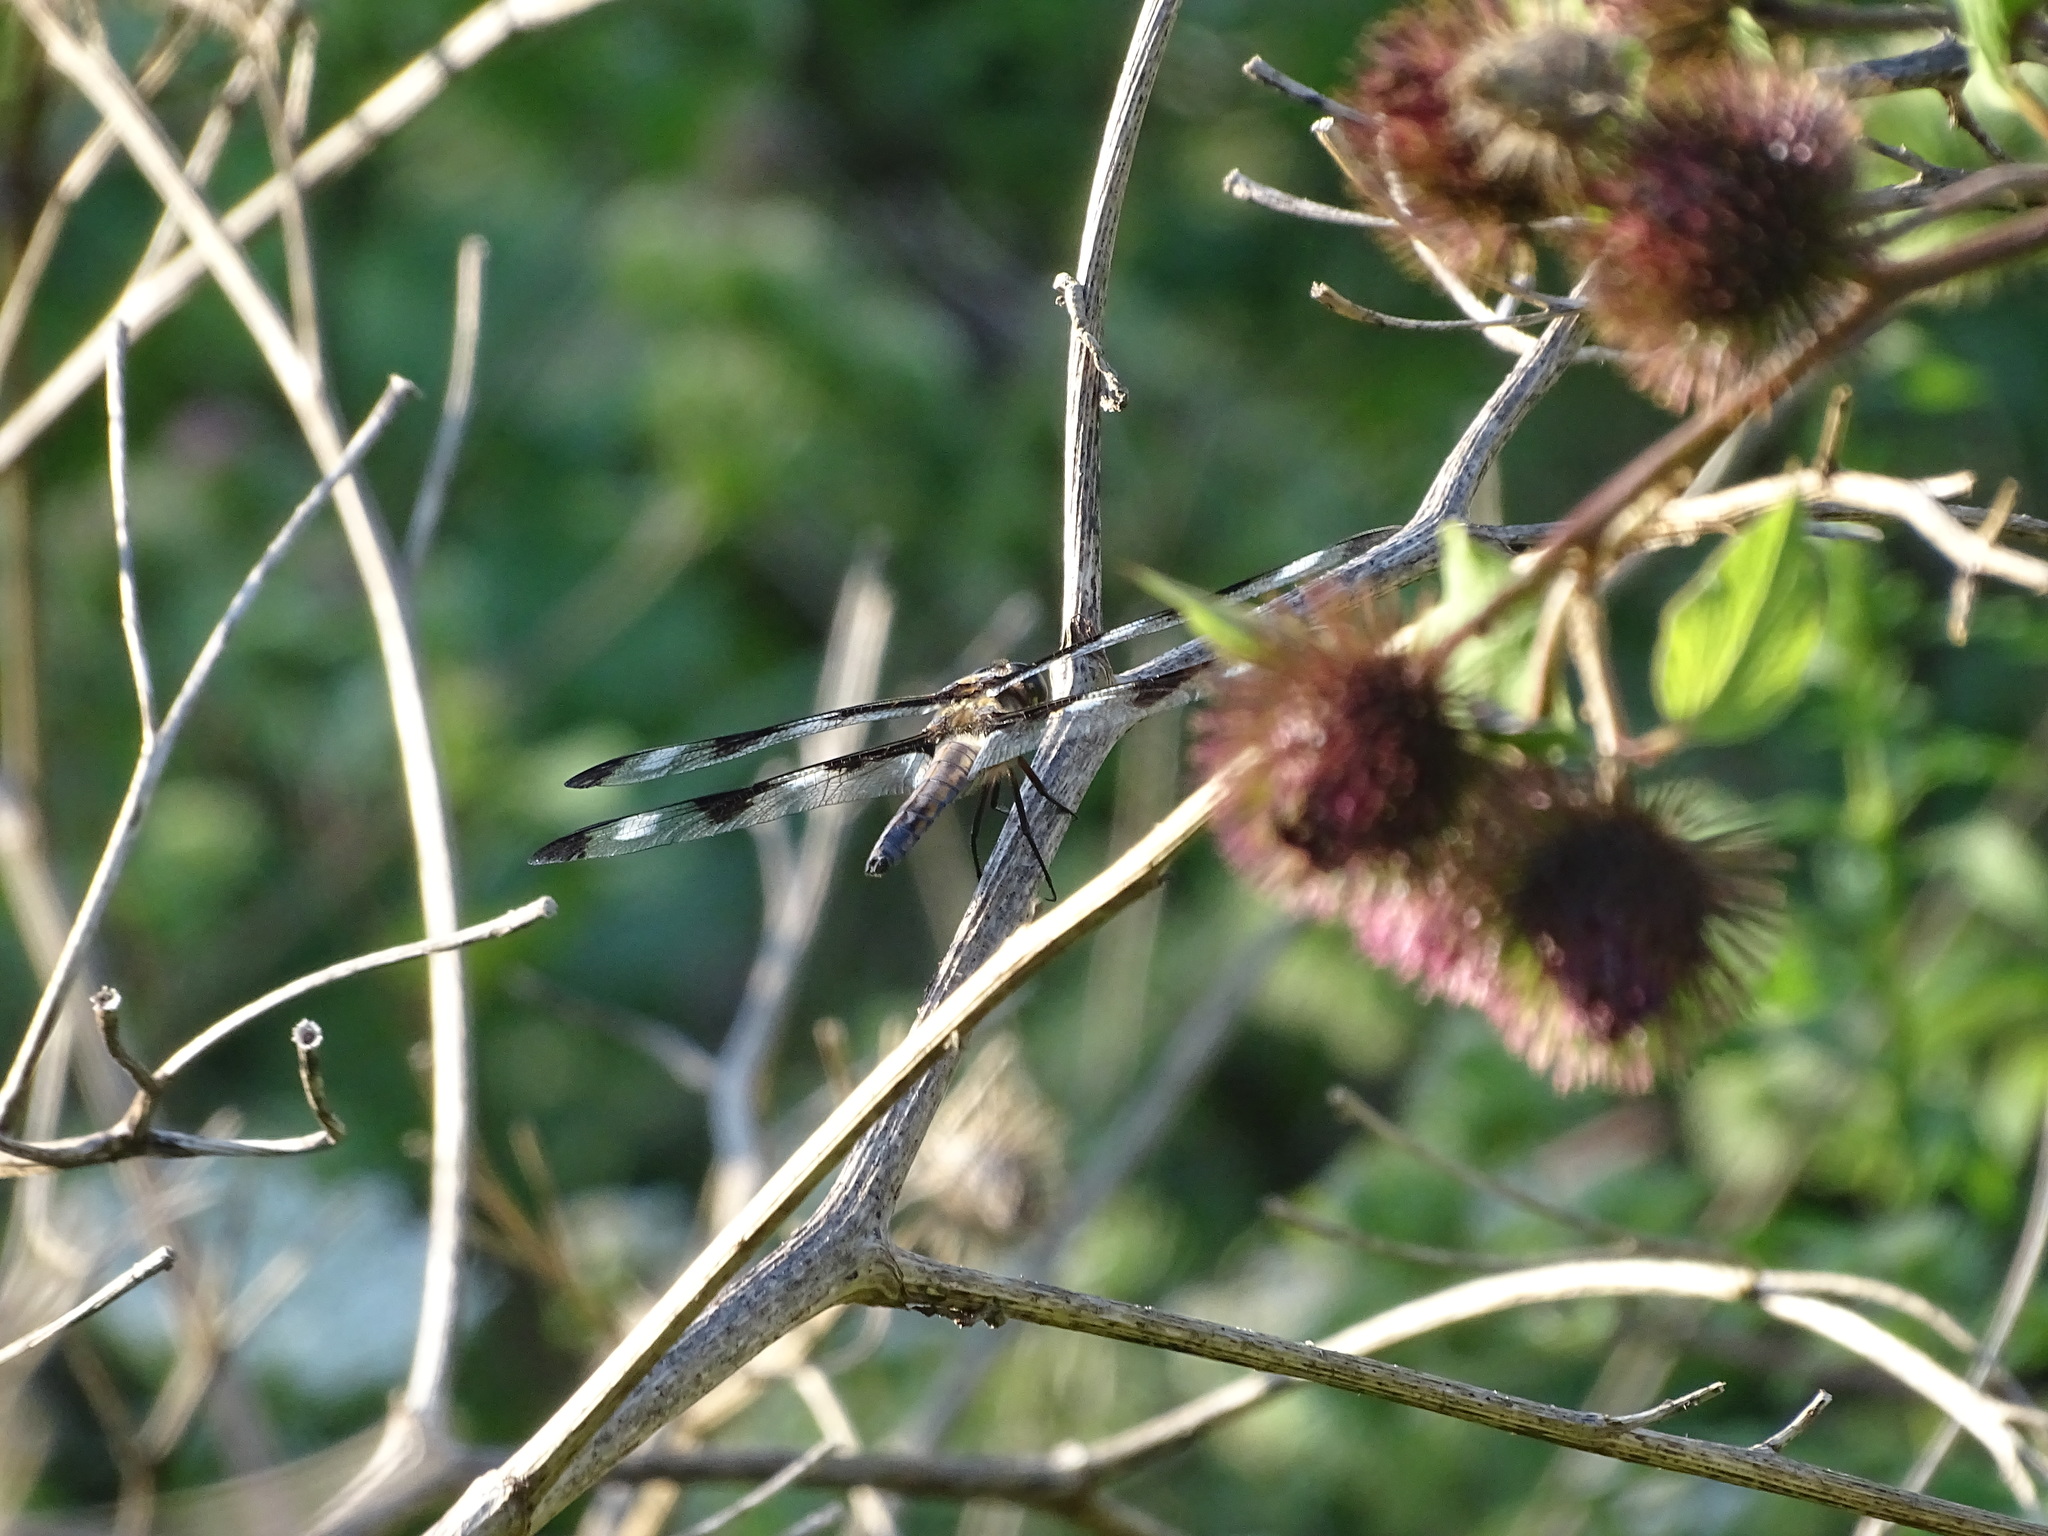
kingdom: Animalia
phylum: Arthropoda
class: Insecta
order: Odonata
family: Libellulidae
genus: Libellula
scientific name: Libellula pulchella
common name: Twelve-spotted skimmer
